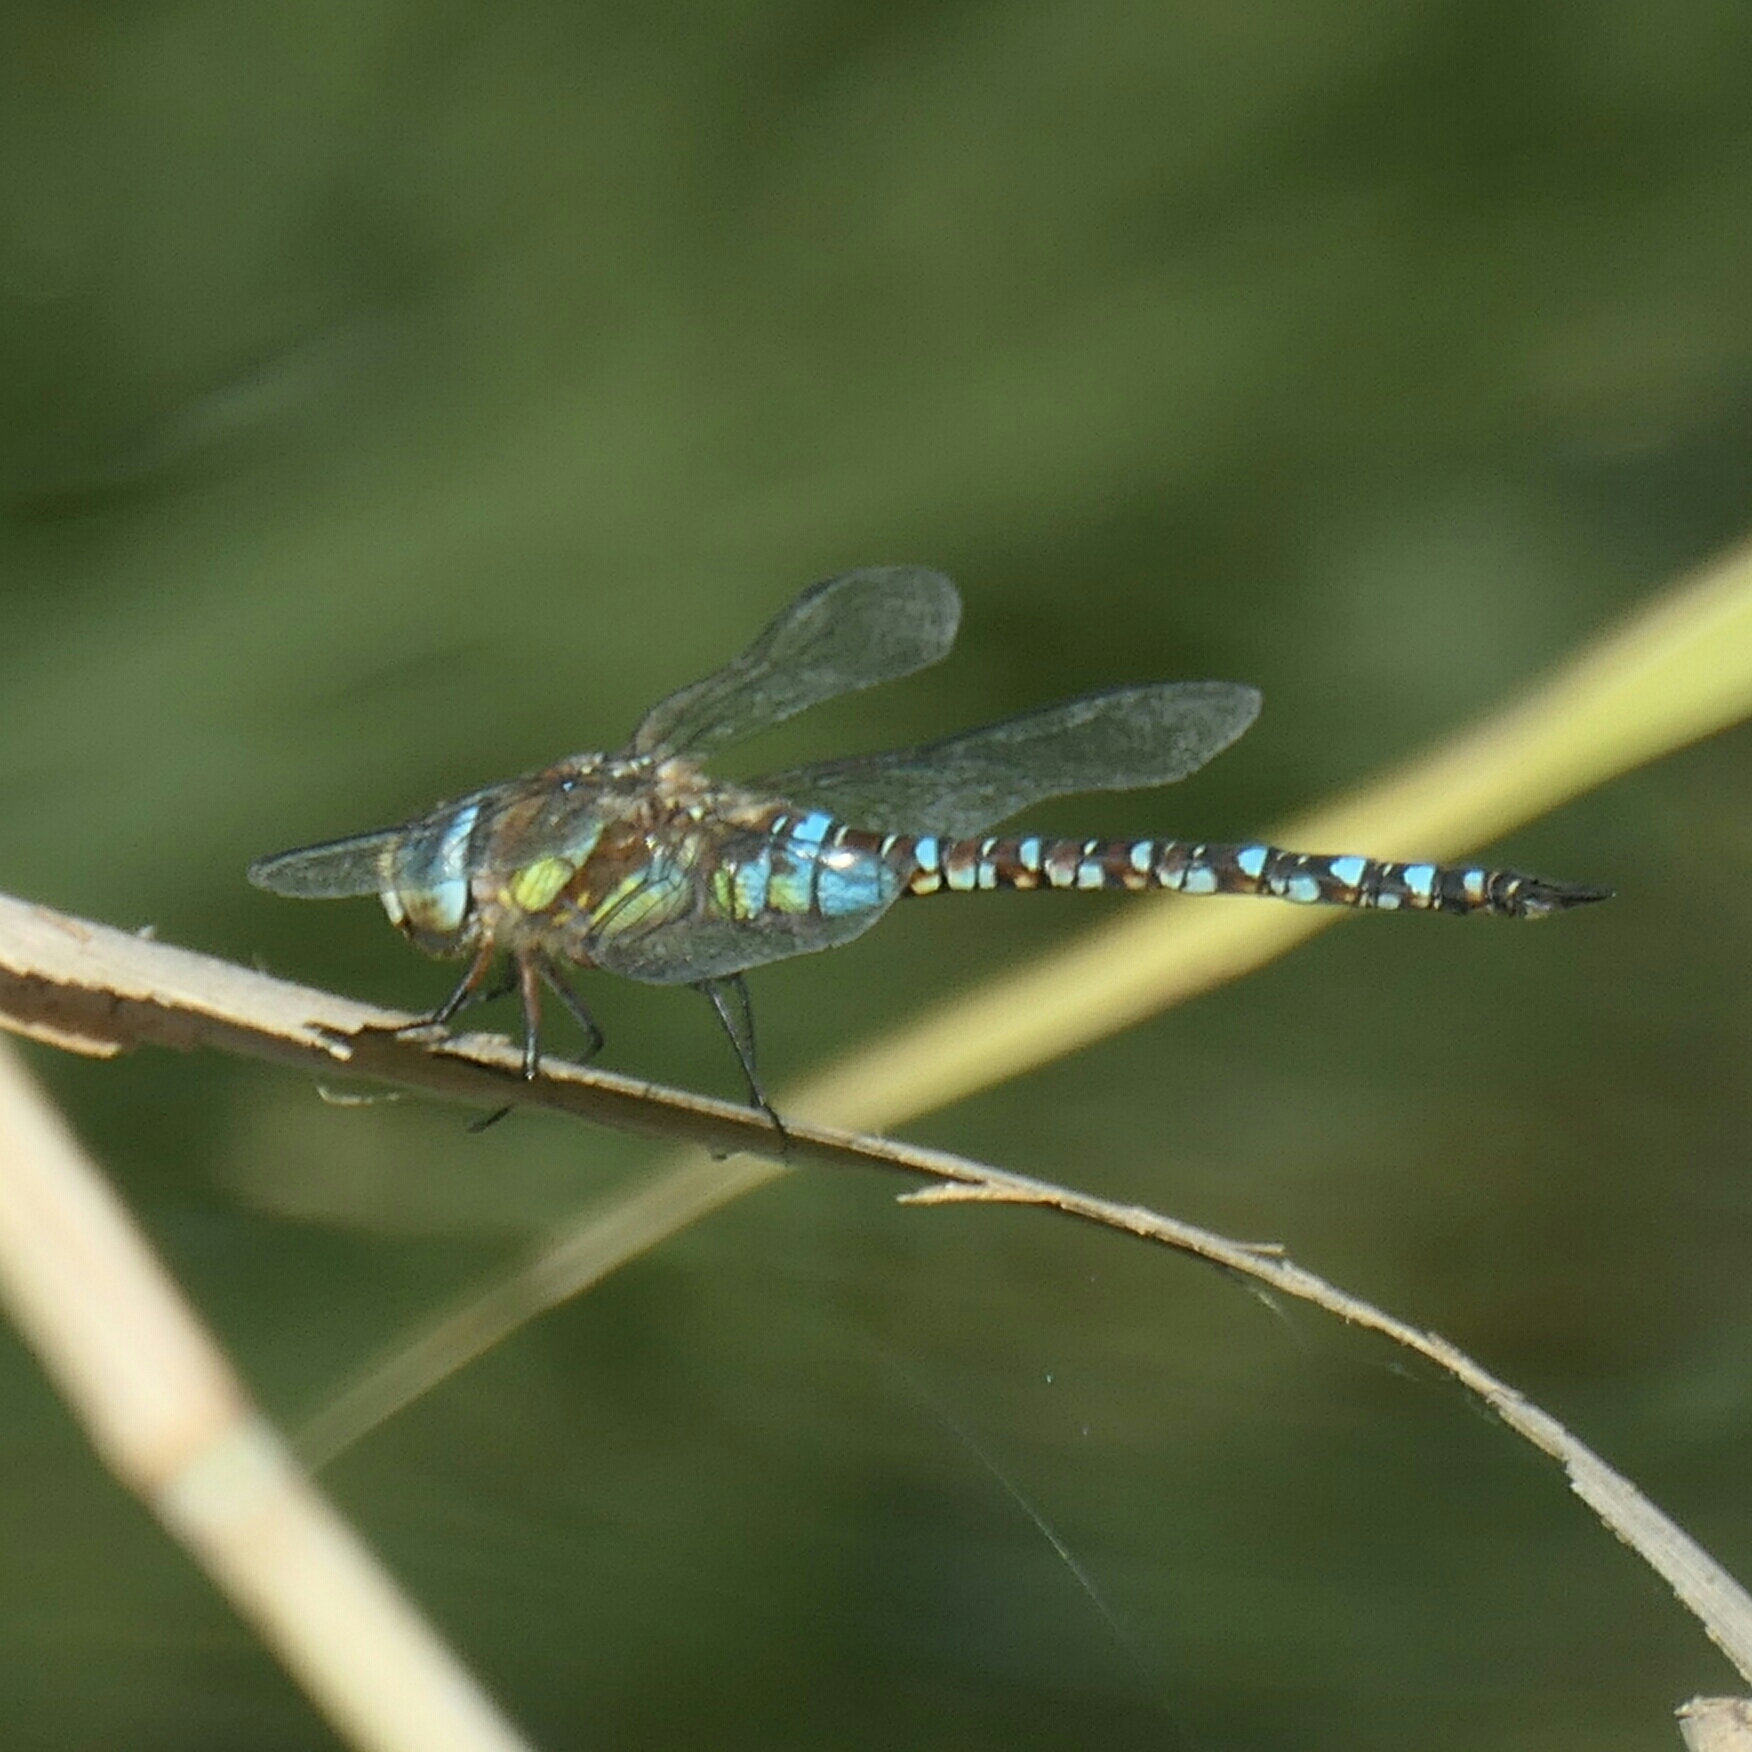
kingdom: Animalia
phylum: Arthropoda
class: Insecta
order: Odonata
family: Aeshnidae
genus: Aeshna
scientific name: Aeshna mixta
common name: Migrant hawker
